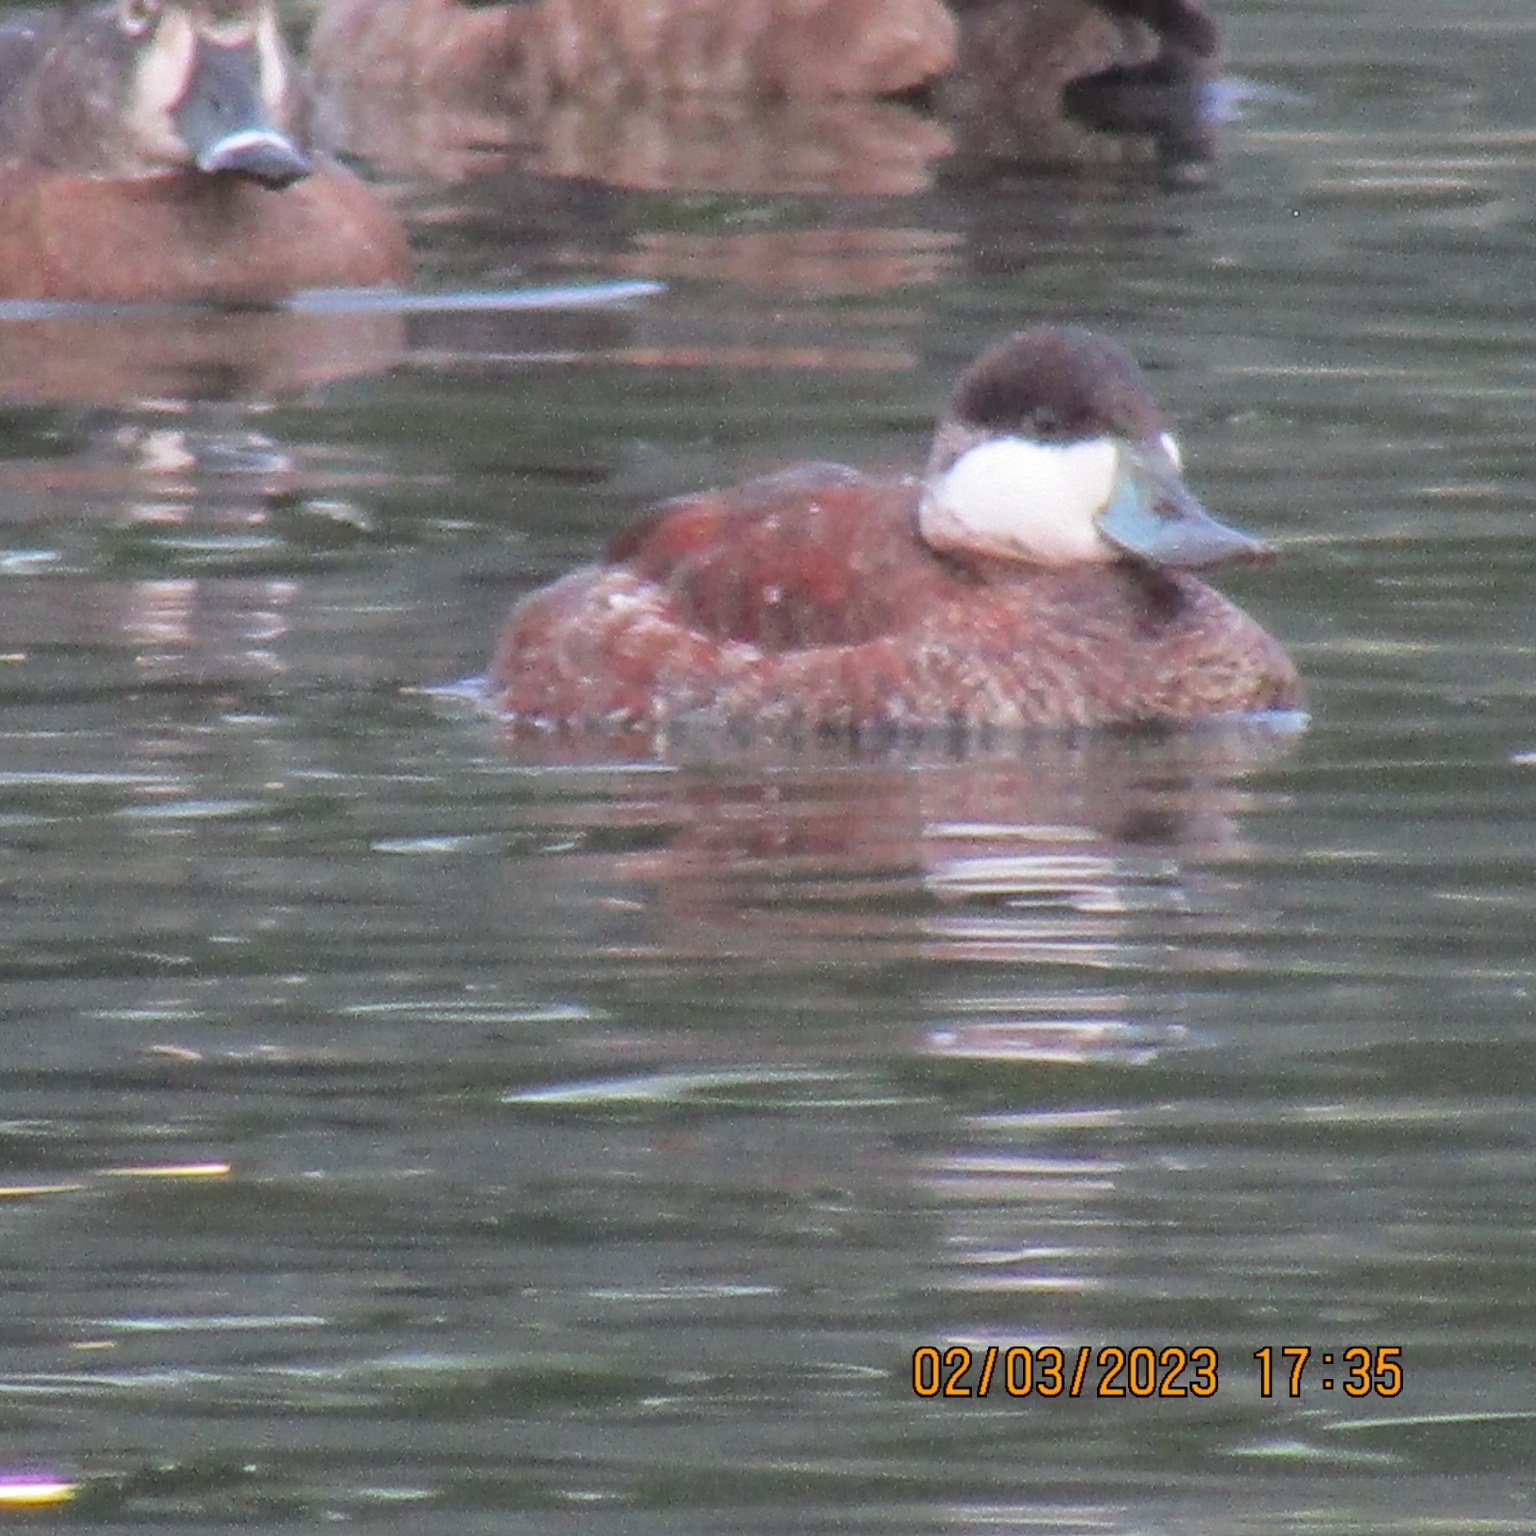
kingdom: Animalia
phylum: Chordata
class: Aves
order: Anseriformes
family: Anatidae
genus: Oxyura
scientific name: Oxyura jamaicensis
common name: Ruddy duck
